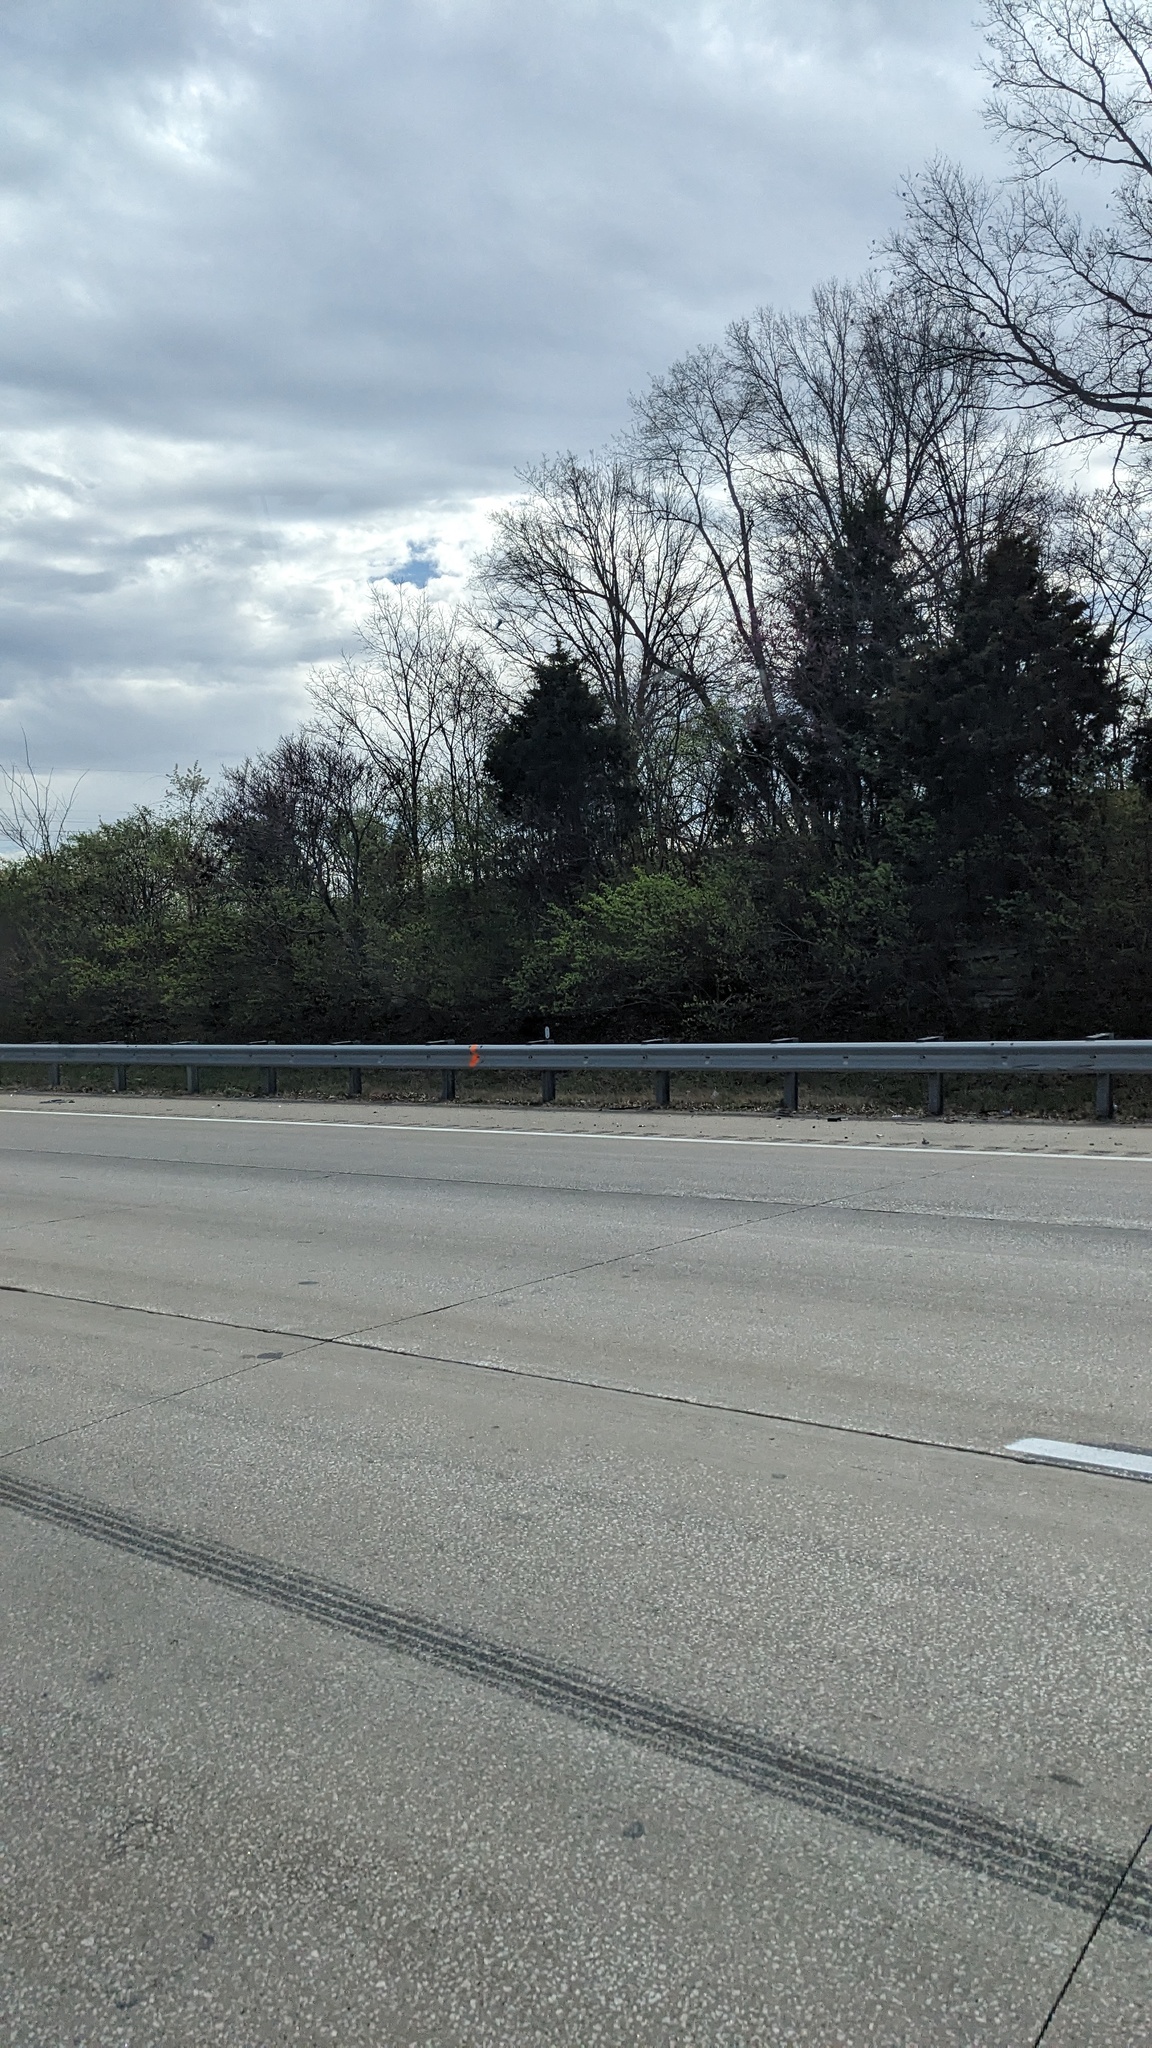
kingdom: Plantae
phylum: Tracheophyta
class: Pinopsida
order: Pinales
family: Cupressaceae
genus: Juniperus
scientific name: Juniperus virginiana
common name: Red juniper
